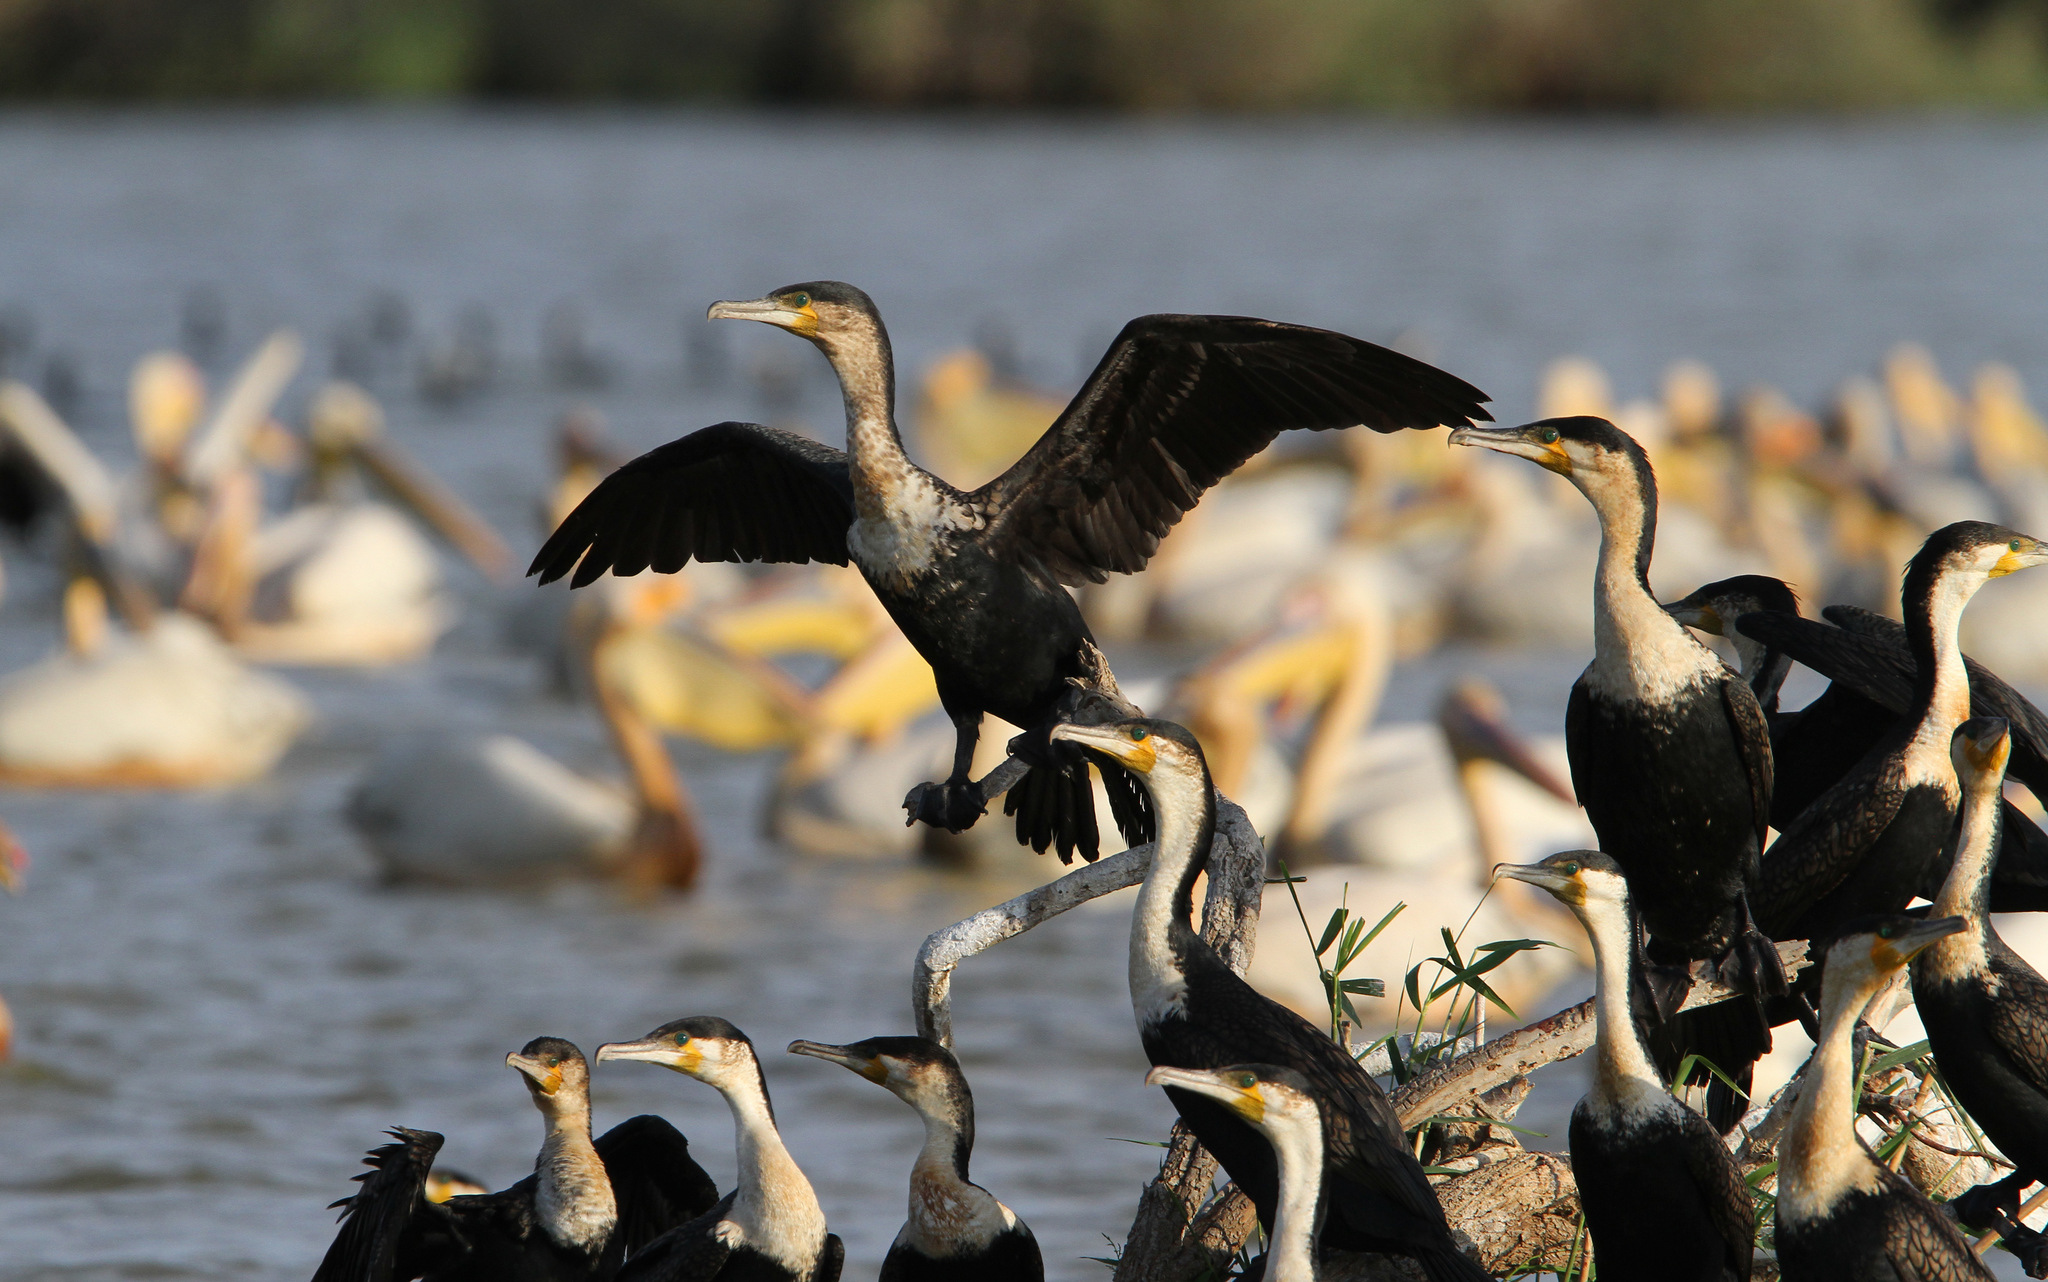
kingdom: Animalia
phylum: Chordata
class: Aves
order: Suliformes
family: Phalacrocoracidae
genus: Phalacrocorax
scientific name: Phalacrocorax carbo
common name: Great cormorant
